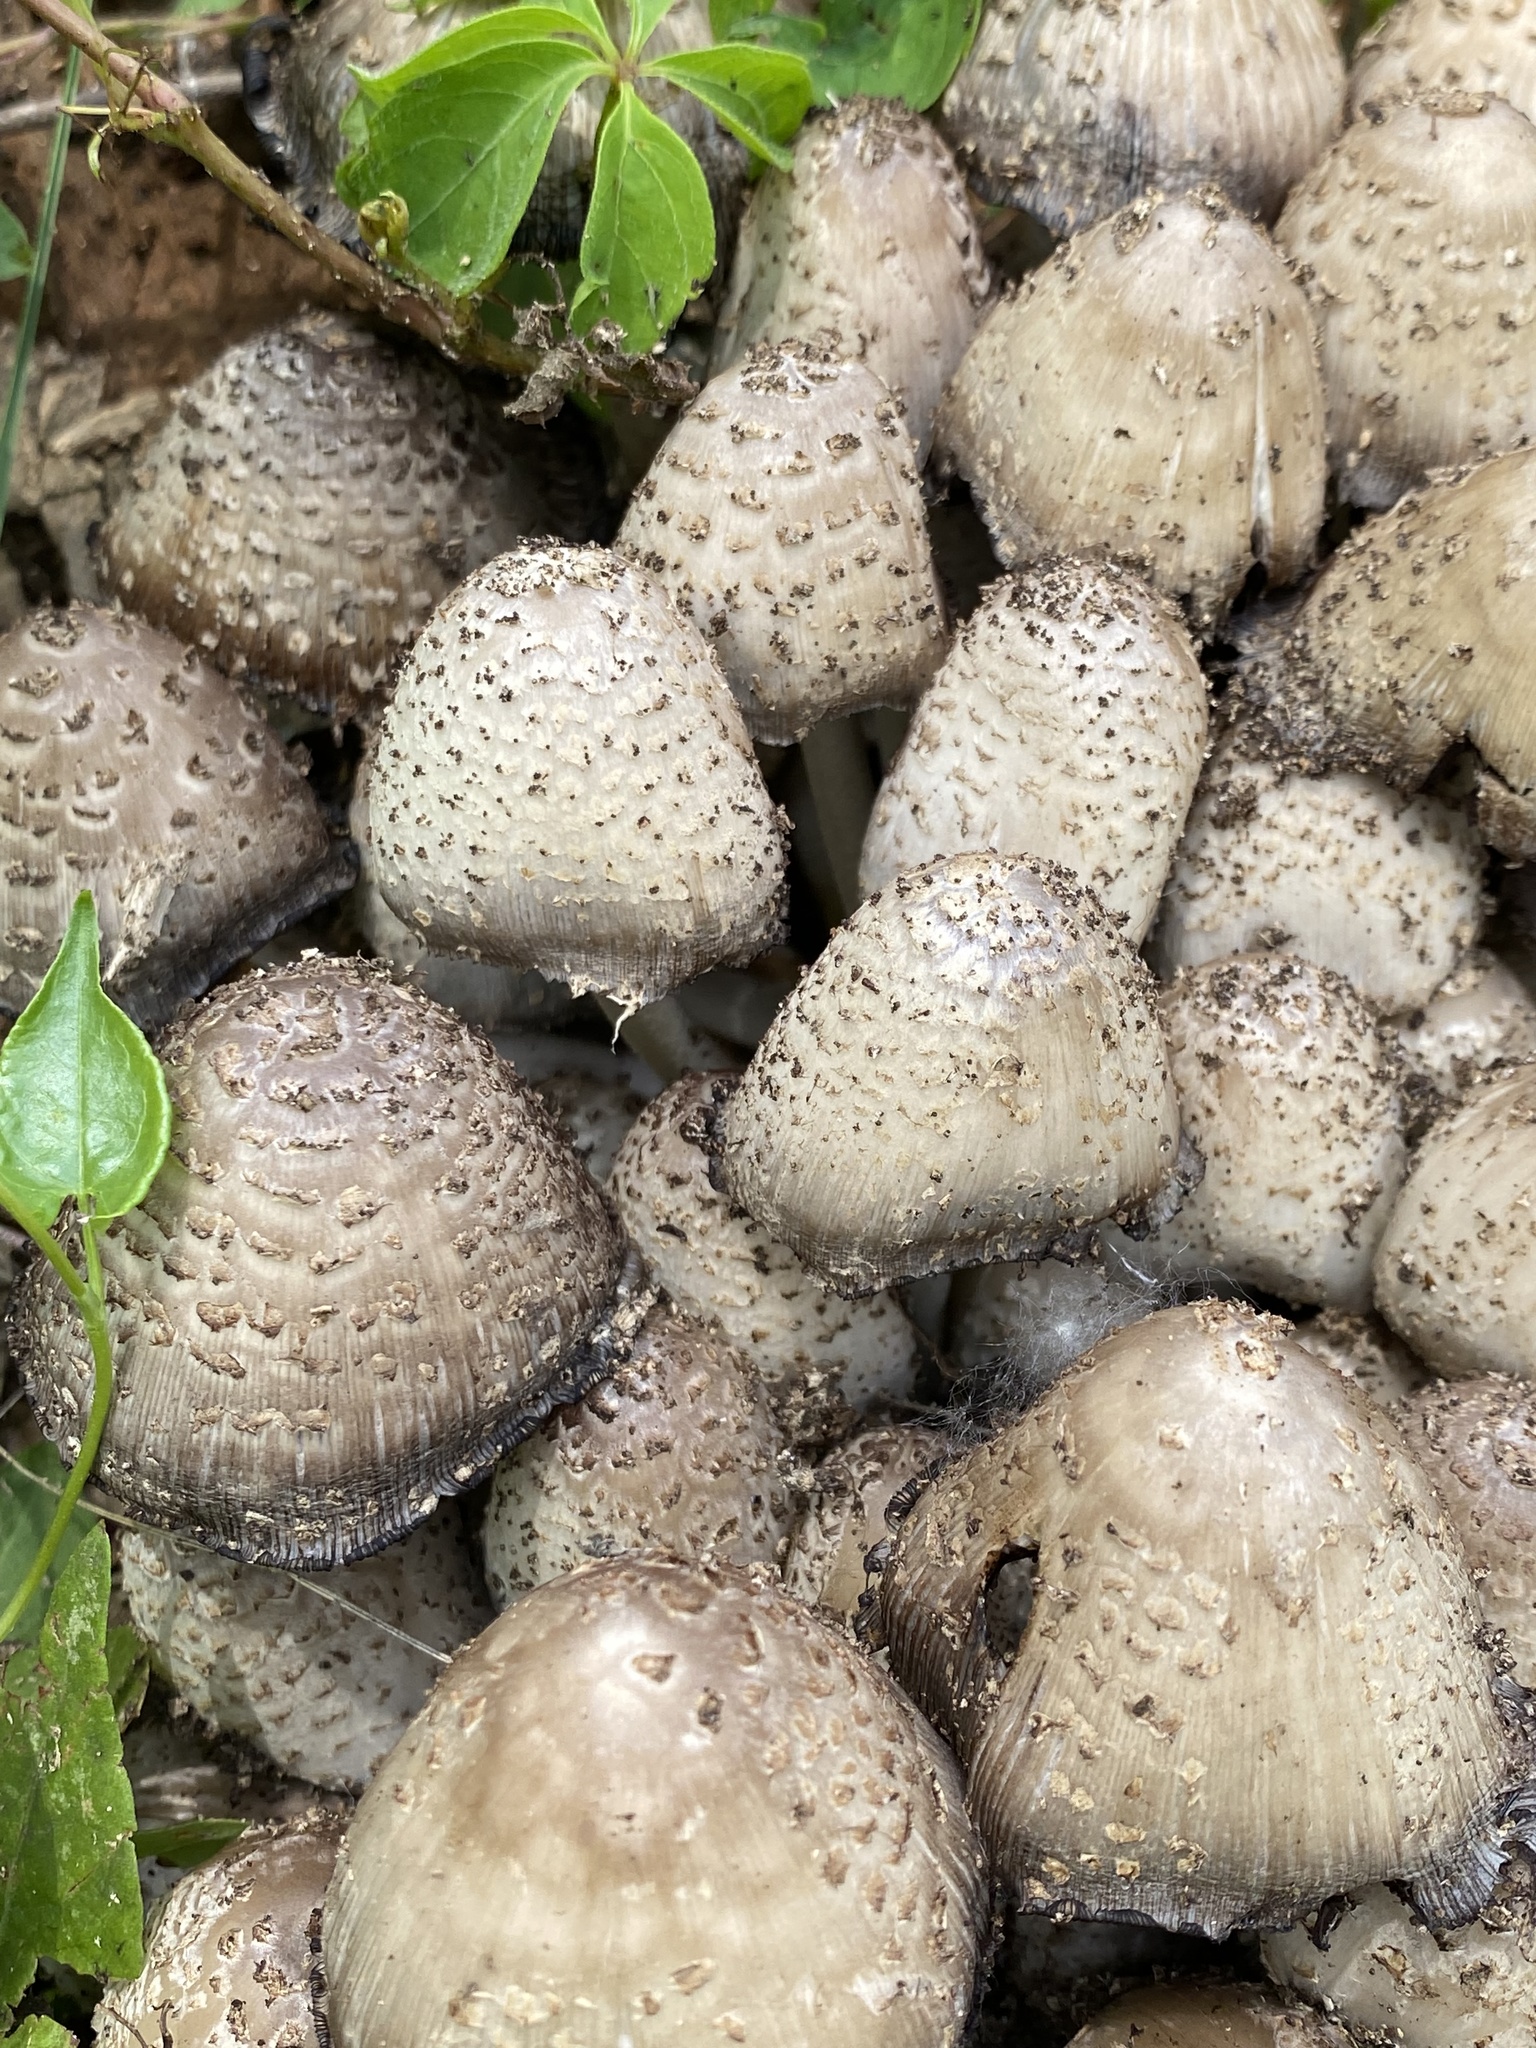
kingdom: Fungi
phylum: Basidiomycota
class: Agaricomycetes
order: Agaricales
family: Psathyrellaceae
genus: Coprinopsis
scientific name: Coprinopsis variegata
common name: Scaly ink cap
